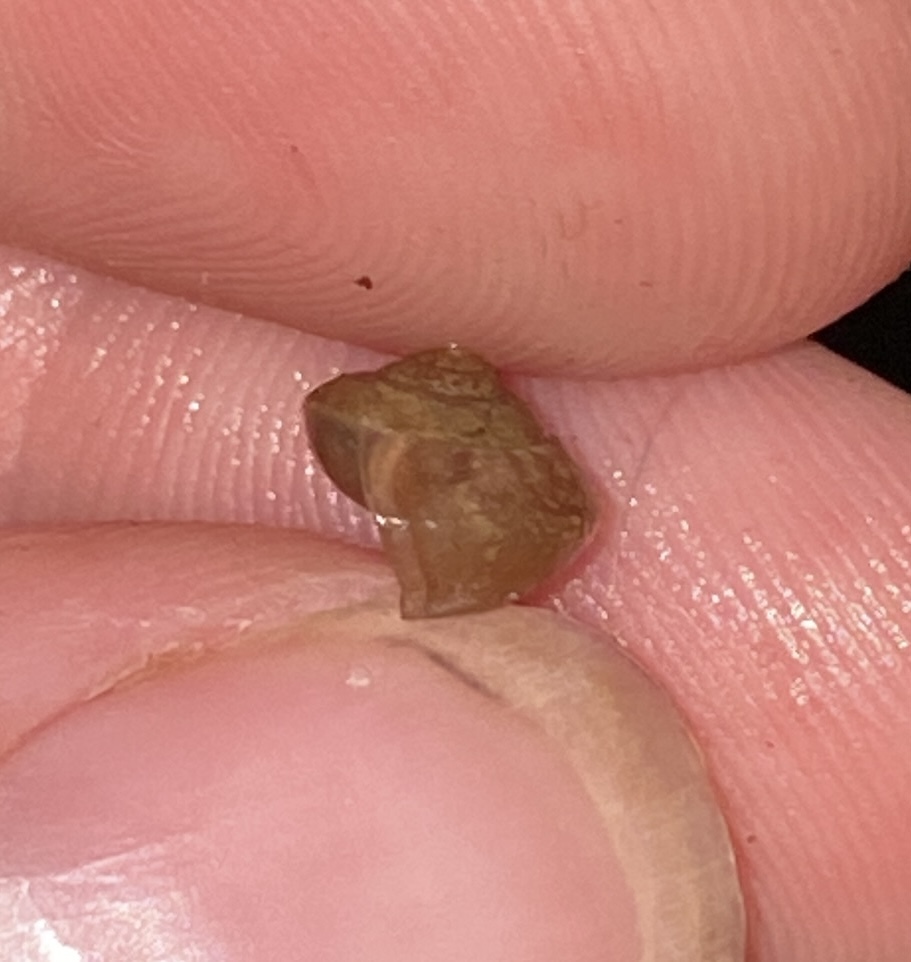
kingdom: Animalia
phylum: Mollusca
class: Gastropoda
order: Stylommatophora
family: Camaenidae
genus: Bradybaena
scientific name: Bradybaena similaris
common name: Asian trampsnail
